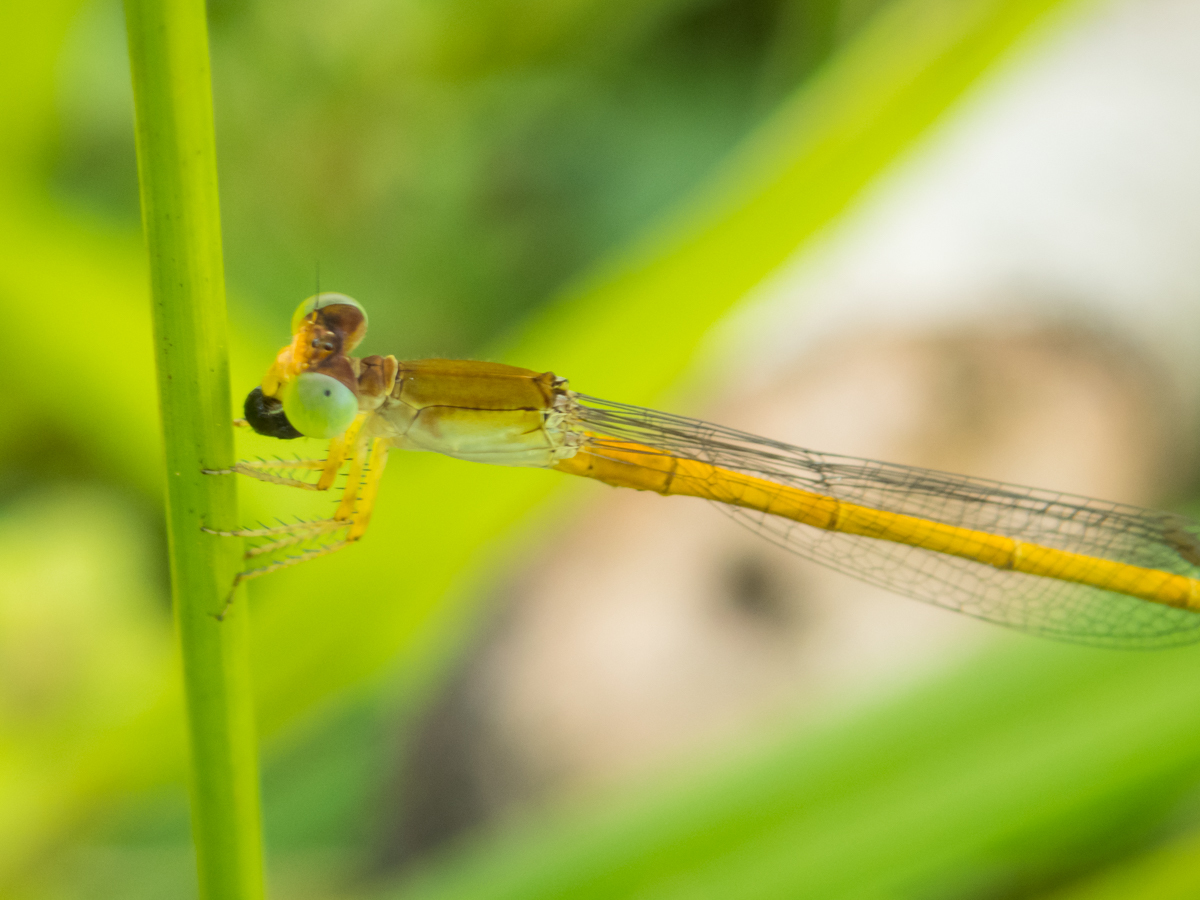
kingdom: Animalia
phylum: Arthropoda
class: Insecta
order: Odonata
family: Coenagrionidae
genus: Ceriagrion
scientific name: Ceriagrion calamineum
